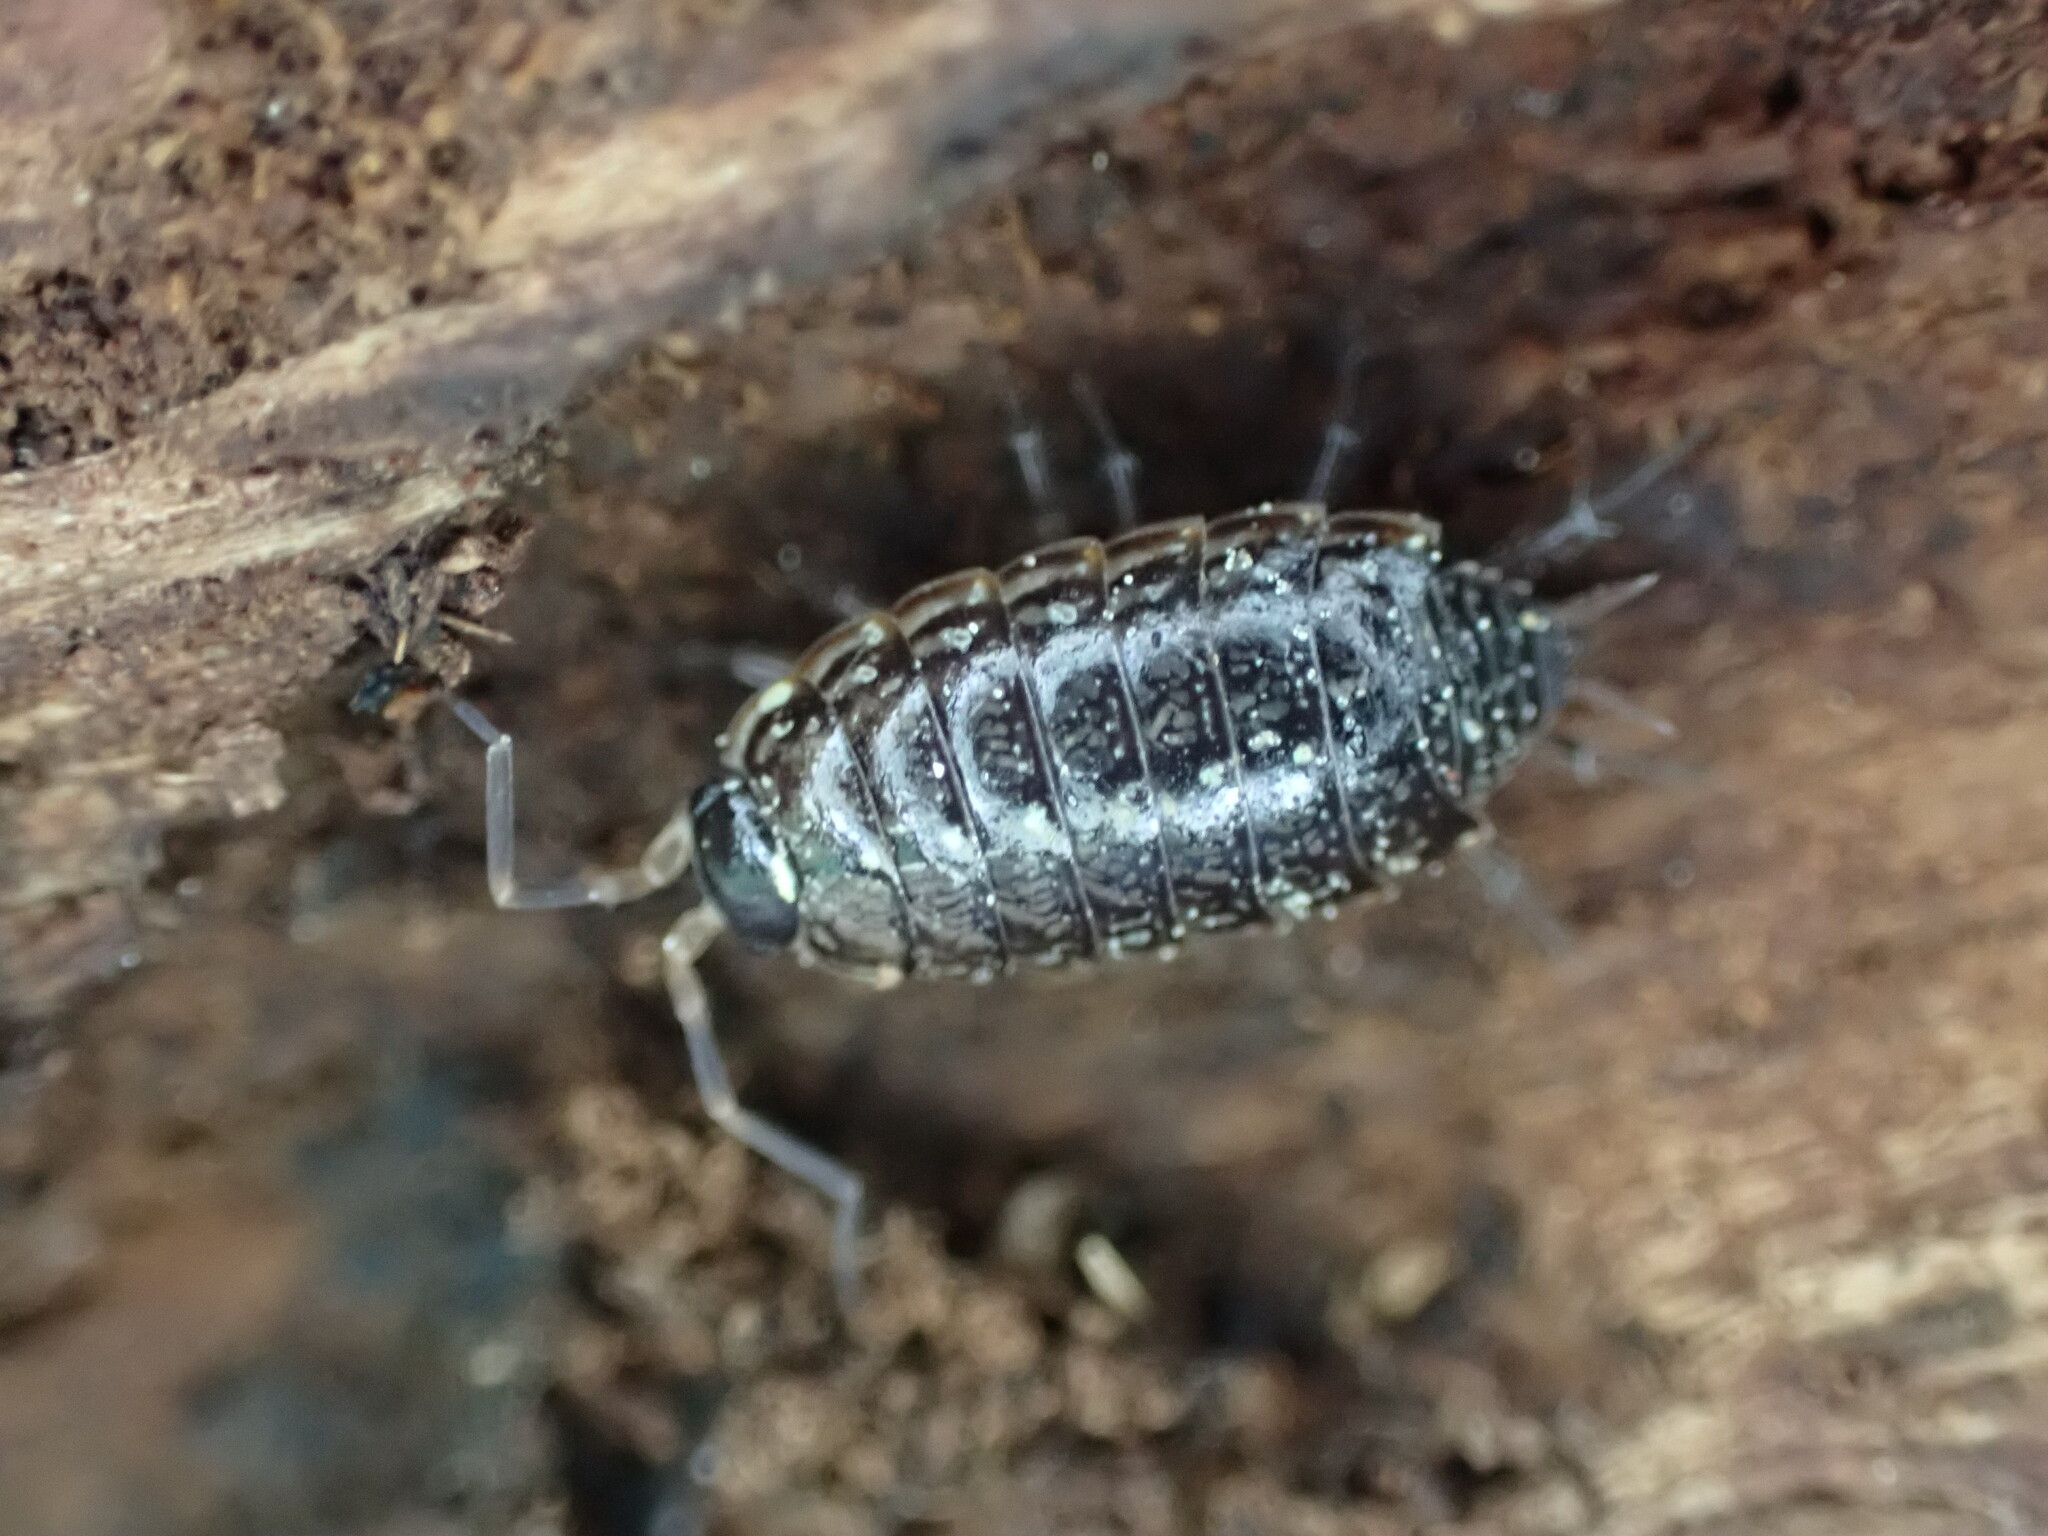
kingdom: Animalia
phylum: Arthropoda
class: Malacostraca
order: Isopoda
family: Philosciidae
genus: Philoscia
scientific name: Philoscia muscorum
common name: Common striped woodlouse
